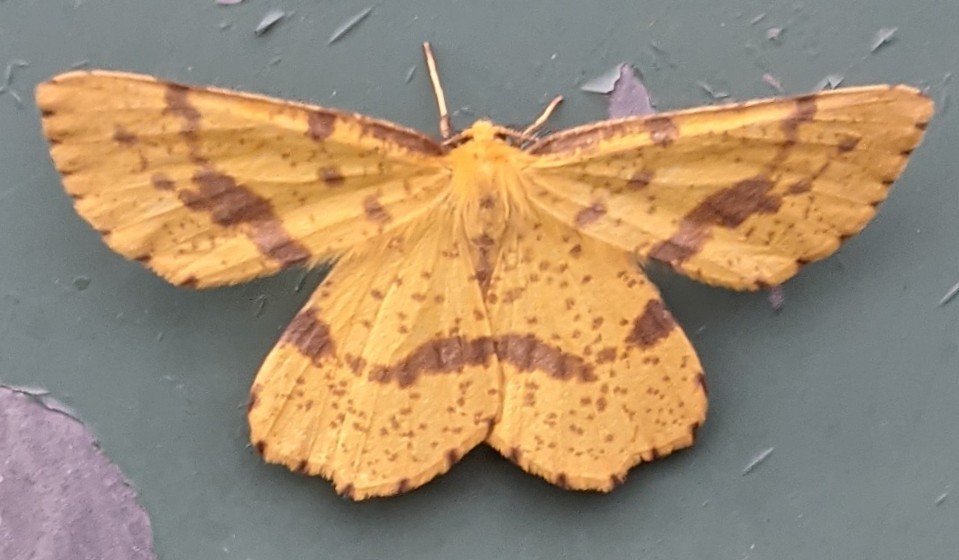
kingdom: Animalia
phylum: Arthropoda
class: Insecta
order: Lepidoptera
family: Geometridae
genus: Xanthotype
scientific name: Xanthotype
